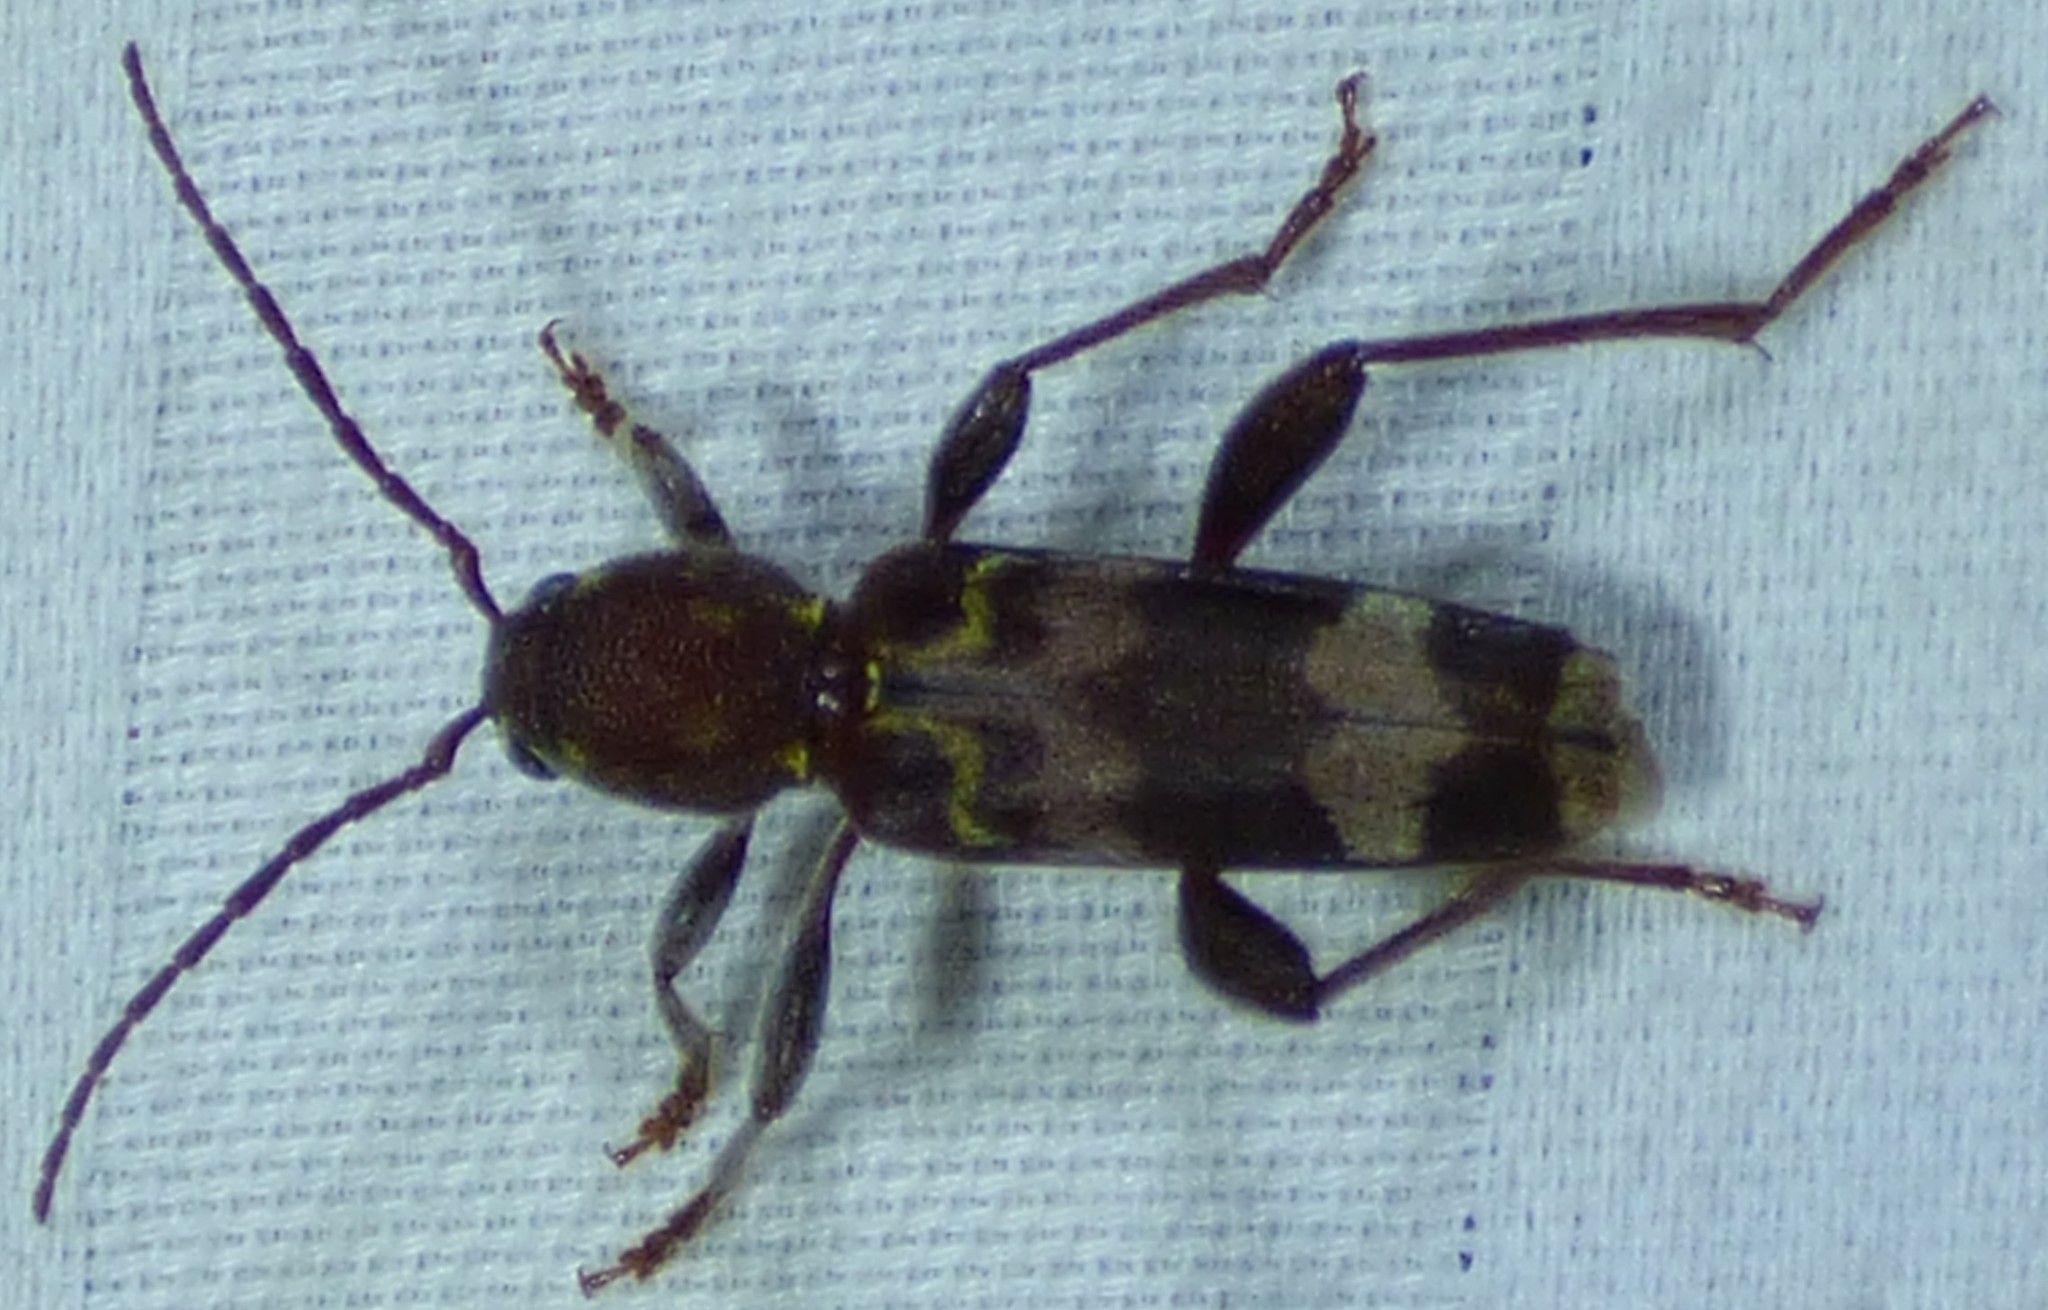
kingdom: Animalia
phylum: Arthropoda
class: Insecta
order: Coleoptera
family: Cerambycidae
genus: Xylotrechus
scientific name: Xylotrechus colonus
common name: Long-horned beetle
